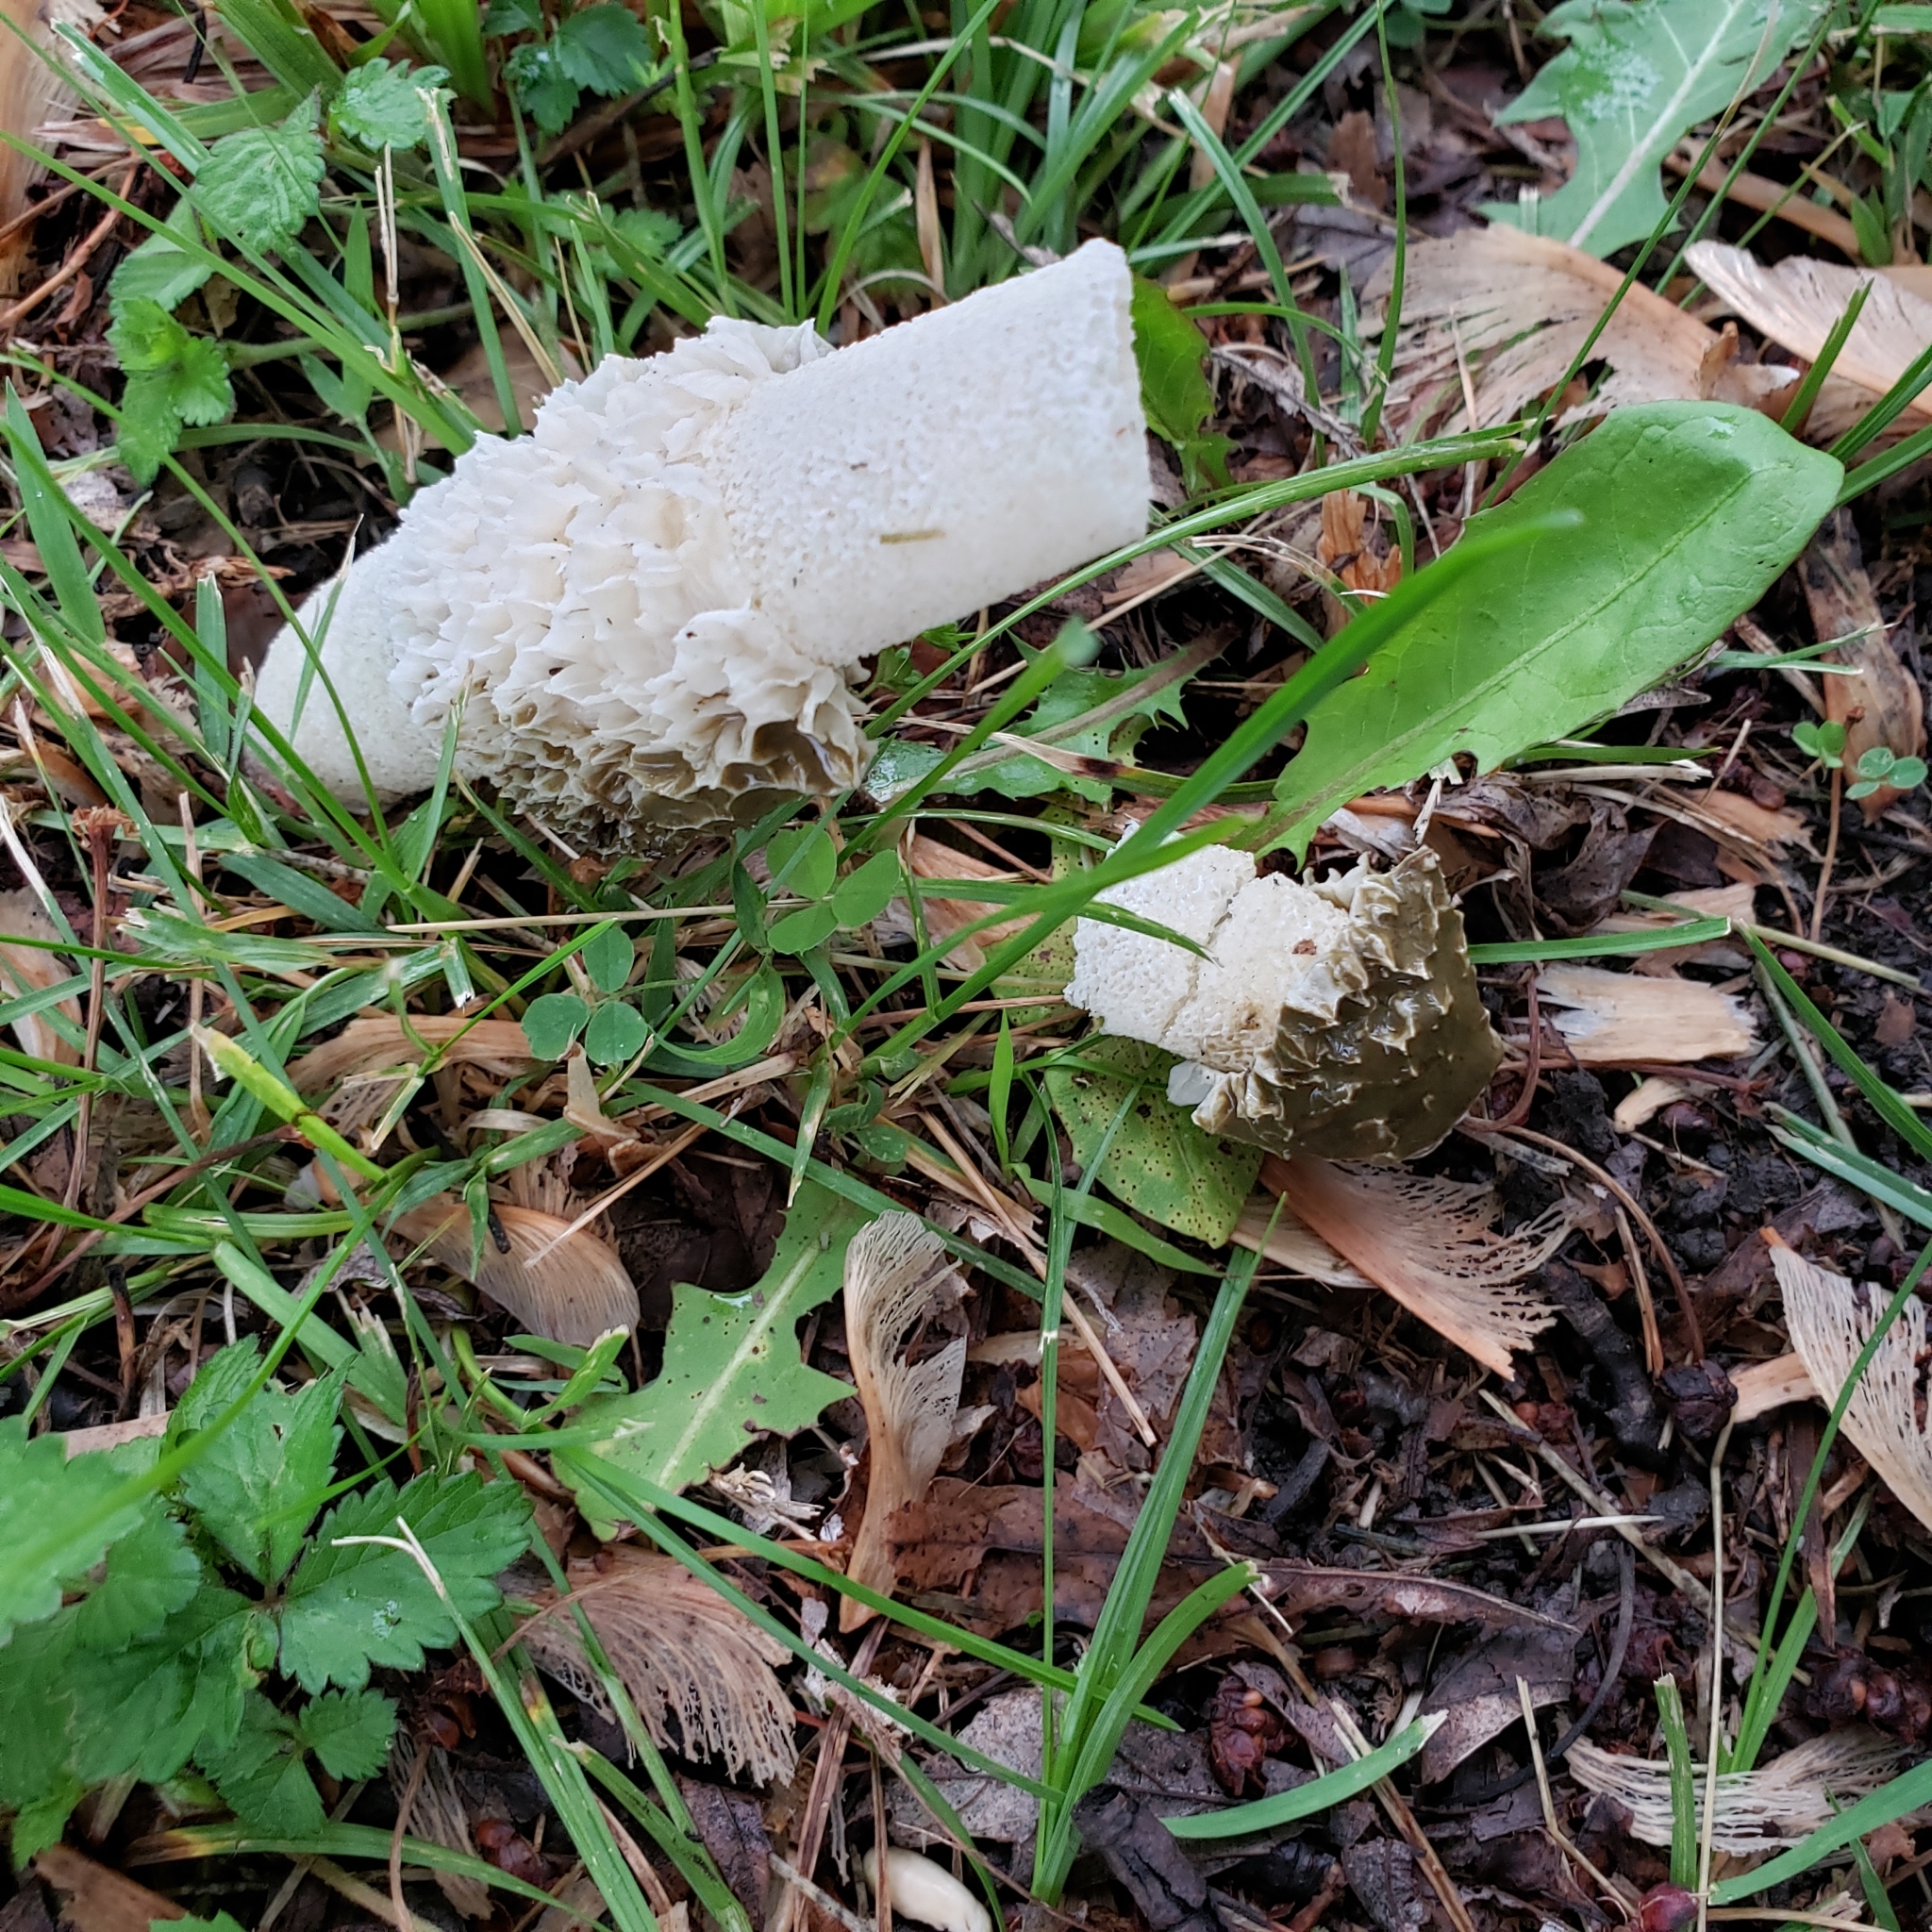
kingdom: Fungi
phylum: Basidiomycota
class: Agaricomycetes
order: Phallales
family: Phallaceae
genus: Phallus
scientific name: Phallus hadriani
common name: Sand stinkhorn
